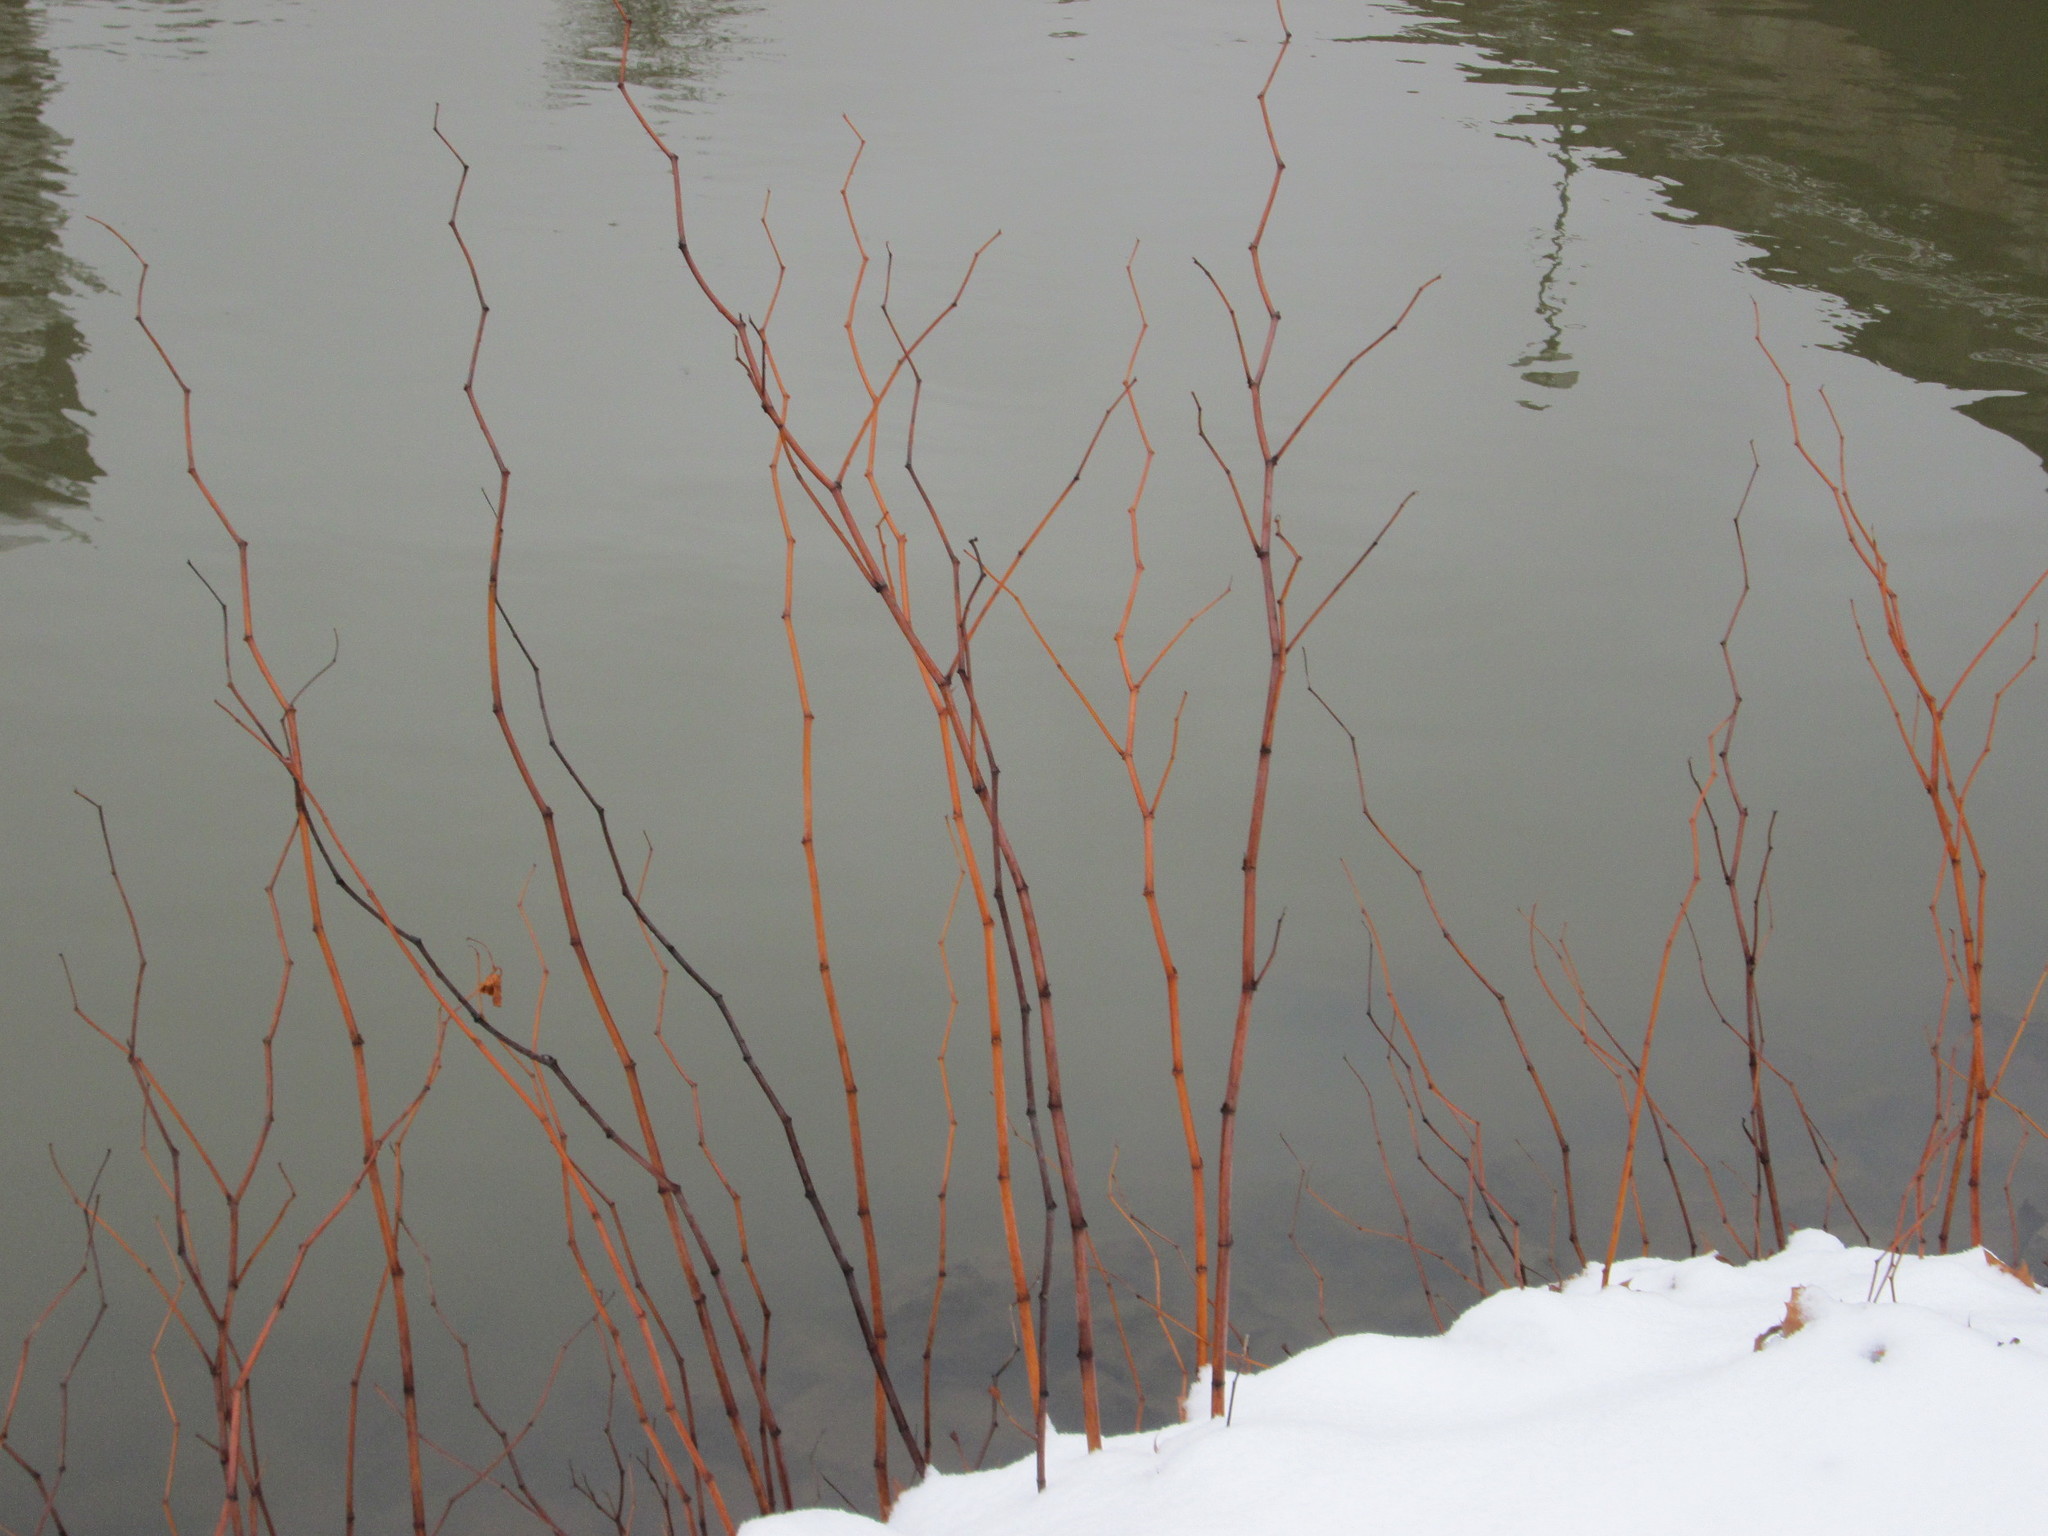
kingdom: Plantae
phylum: Tracheophyta
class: Magnoliopsida
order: Caryophyllales
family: Polygonaceae
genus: Reynoutria
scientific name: Reynoutria japonica
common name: Japanese knotweed
